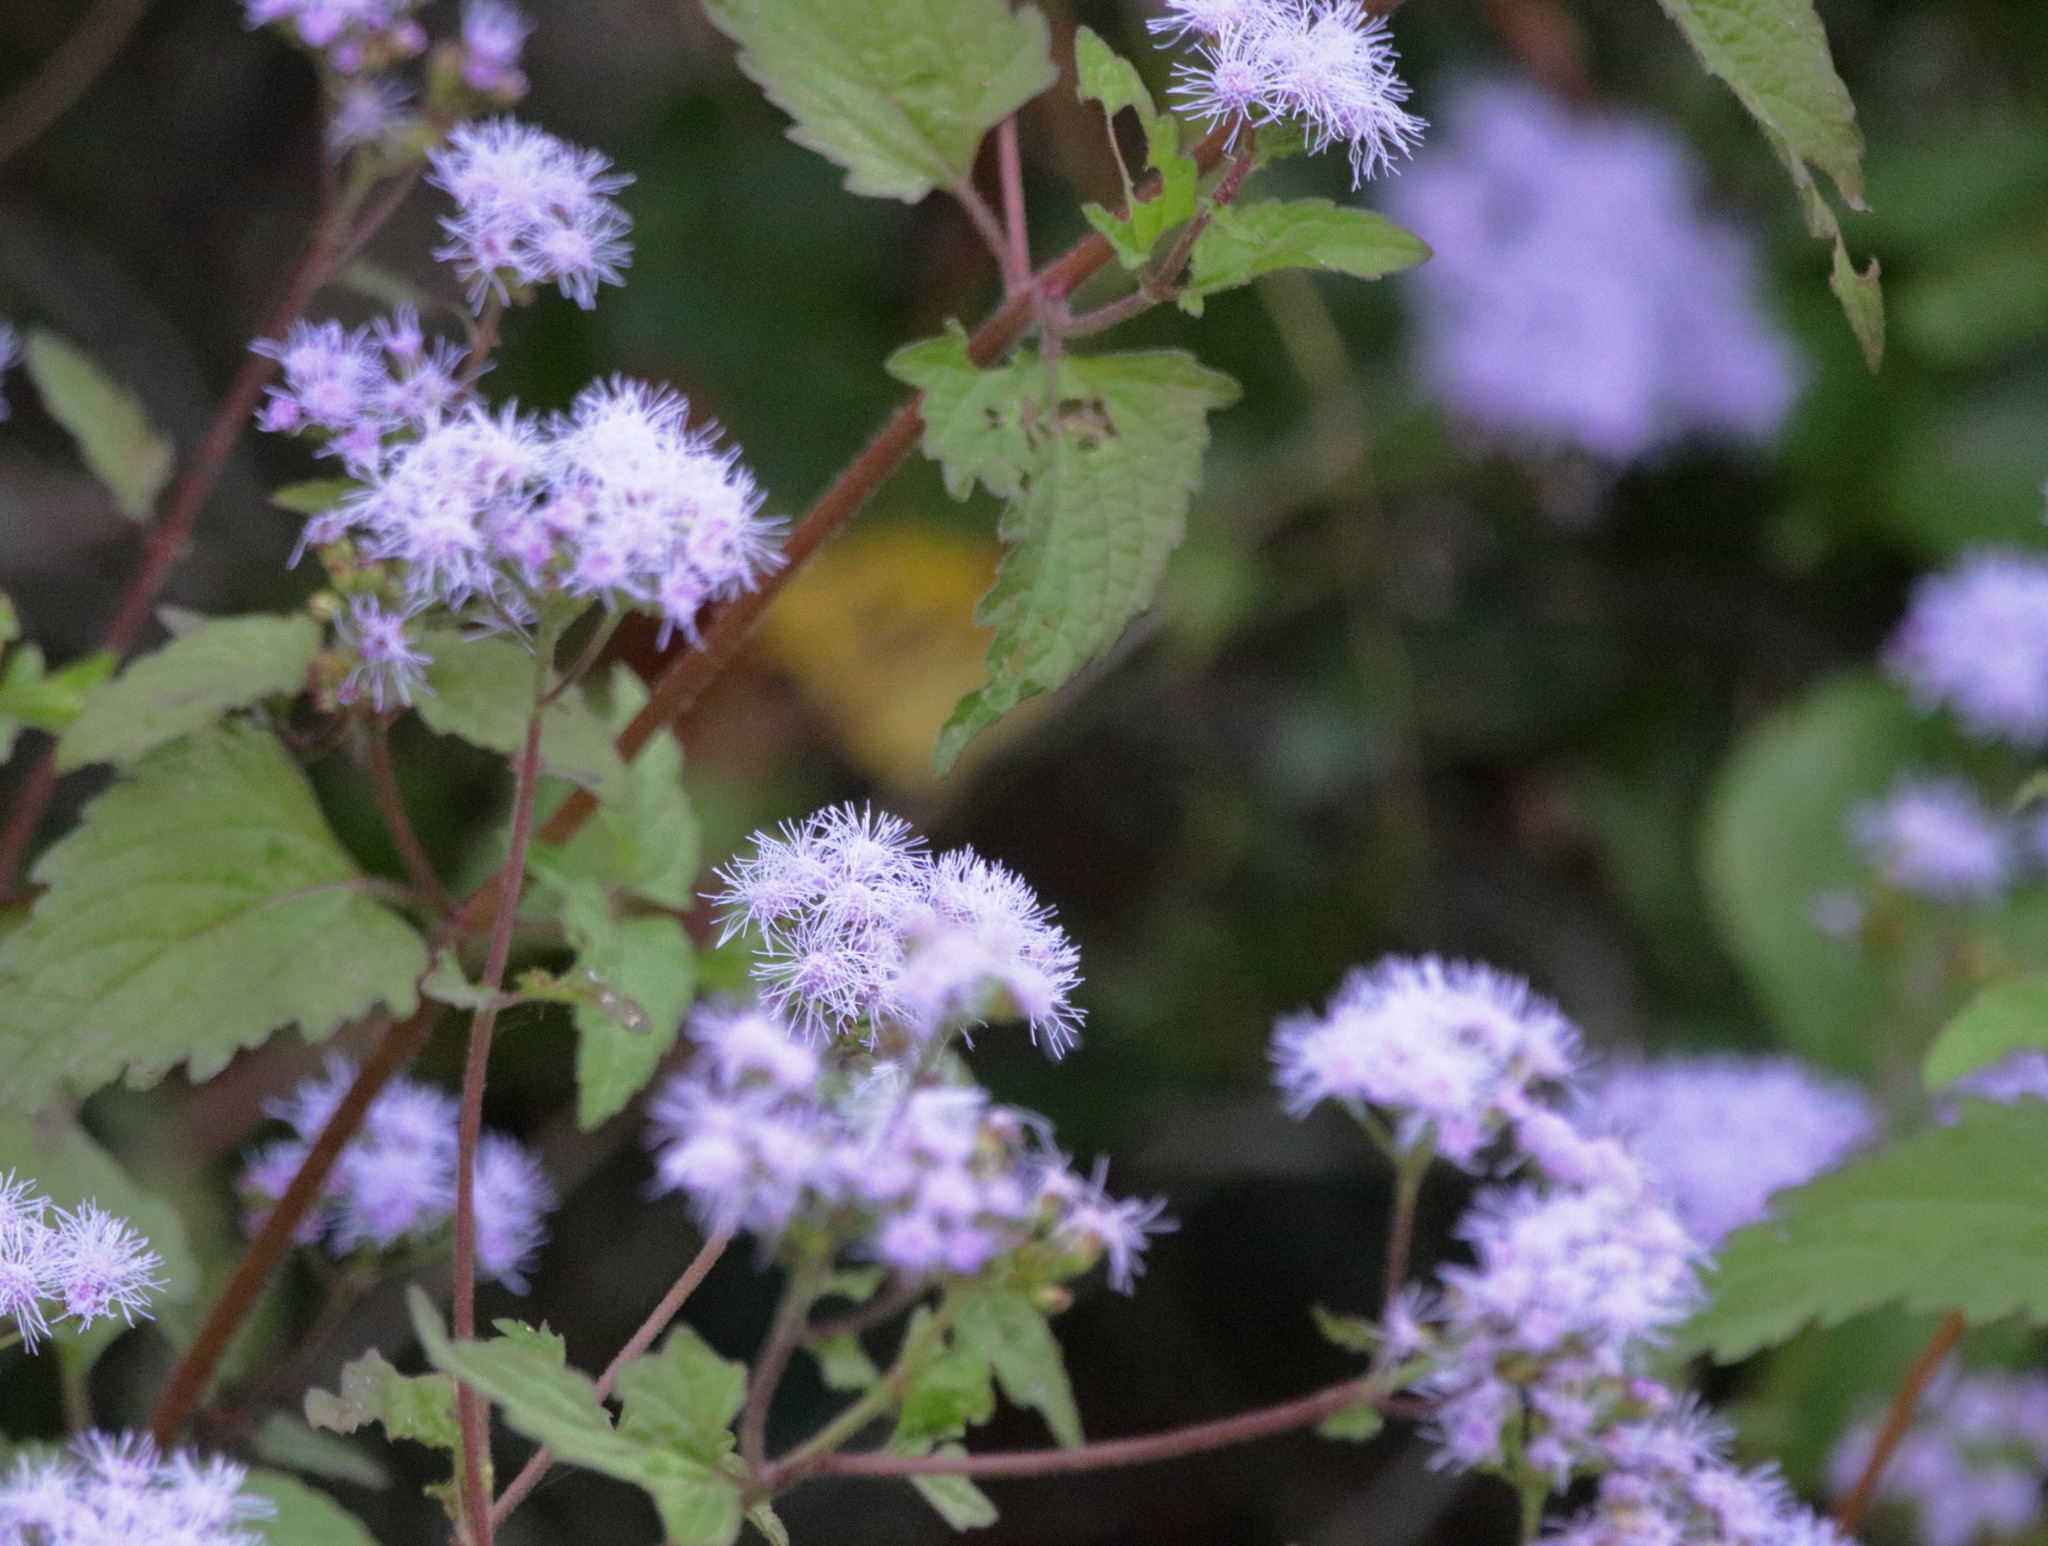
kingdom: Plantae
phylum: Tracheophyta
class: Magnoliopsida
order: Asterales
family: Asteraceae
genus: Conoclinium
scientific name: Conoclinium coelestinum
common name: Blue mistflower
